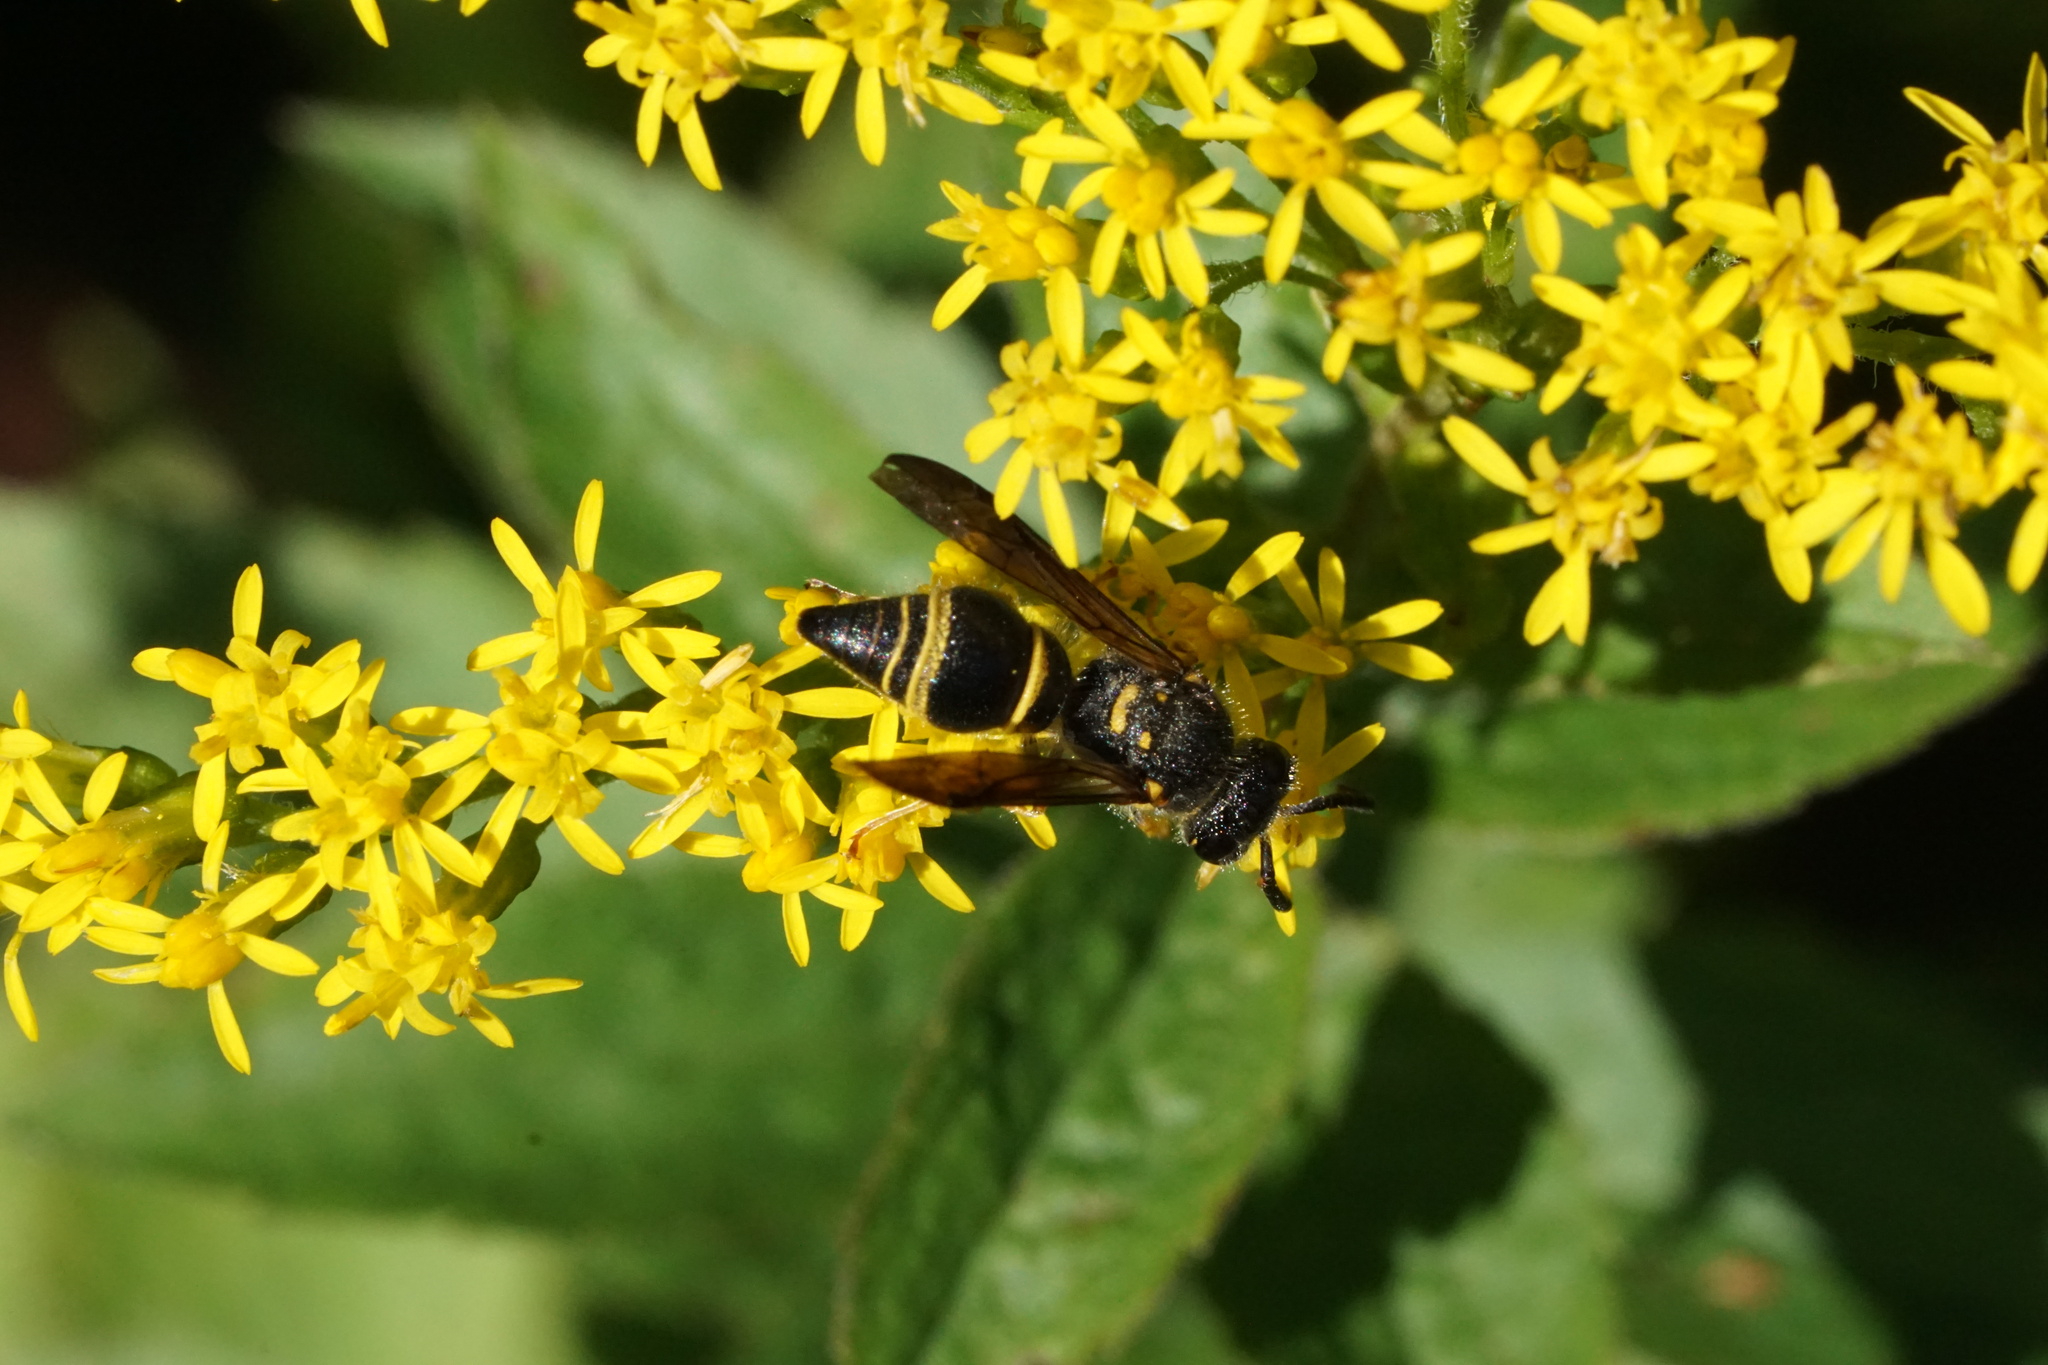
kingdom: Animalia
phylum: Arthropoda
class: Insecta
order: Hymenoptera
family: Vespidae
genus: Ancistrocerus
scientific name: Ancistrocerus campestris
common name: Smiling mason wasp
